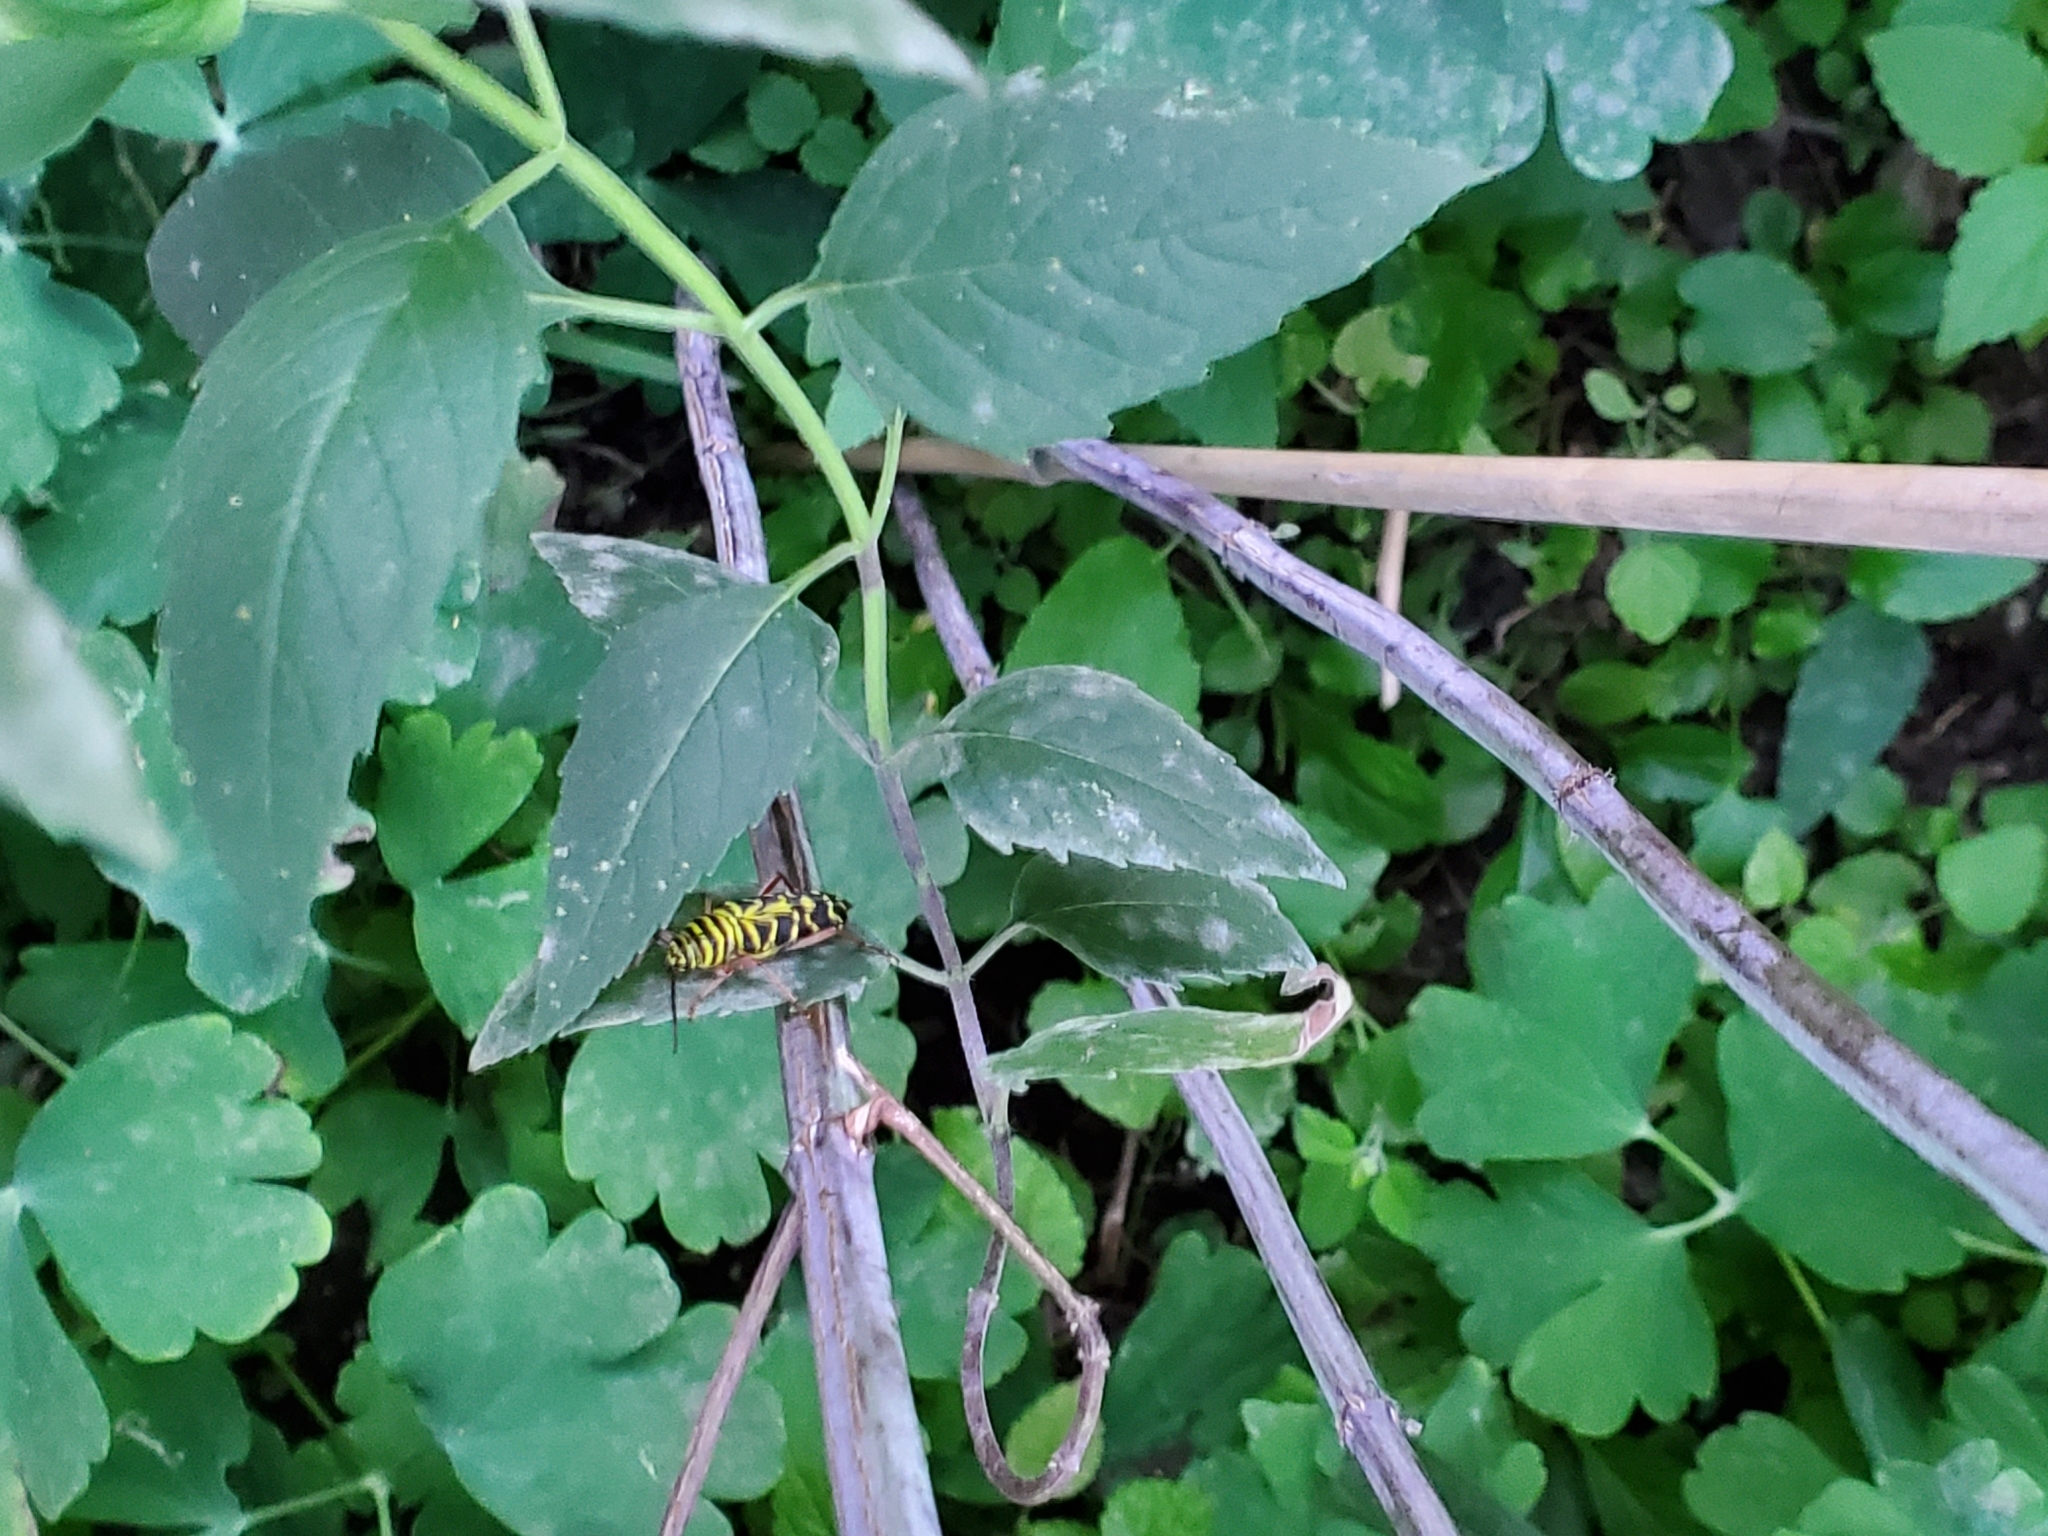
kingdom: Animalia
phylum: Arthropoda
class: Insecta
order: Coleoptera
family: Cerambycidae
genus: Megacyllene
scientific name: Megacyllene robiniae
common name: Locust borer
